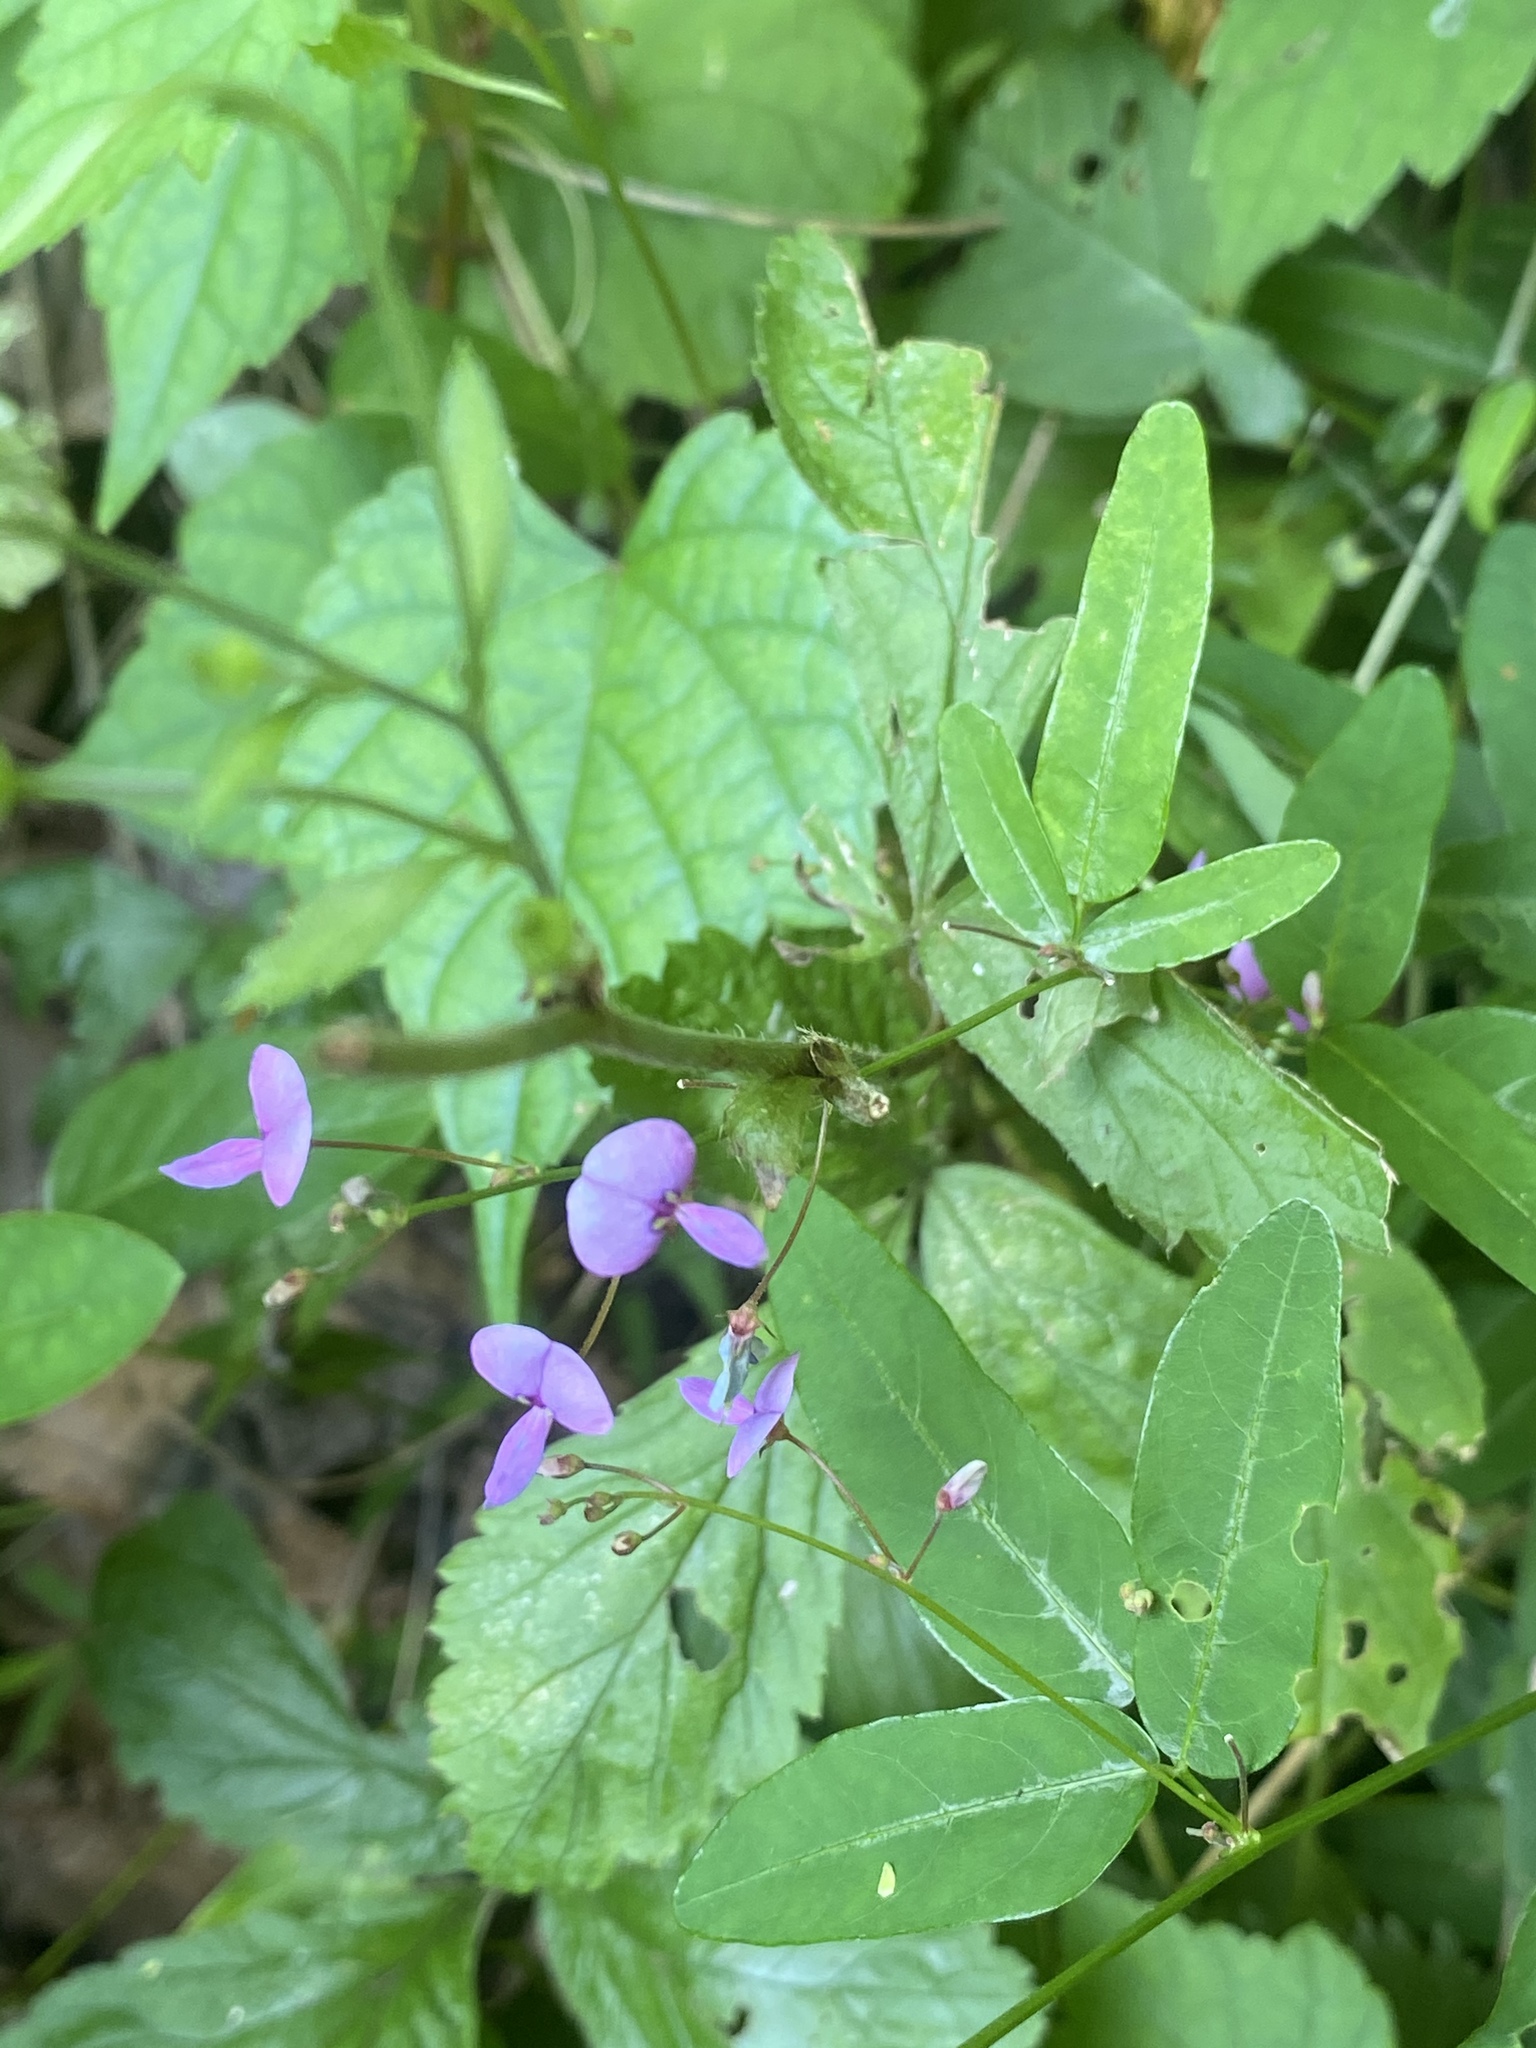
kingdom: Plantae
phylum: Tracheophyta
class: Magnoliopsida
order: Fabales
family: Fabaceae
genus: Desmodium
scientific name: Desmodium paniculatum
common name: Panicled tick-clover
